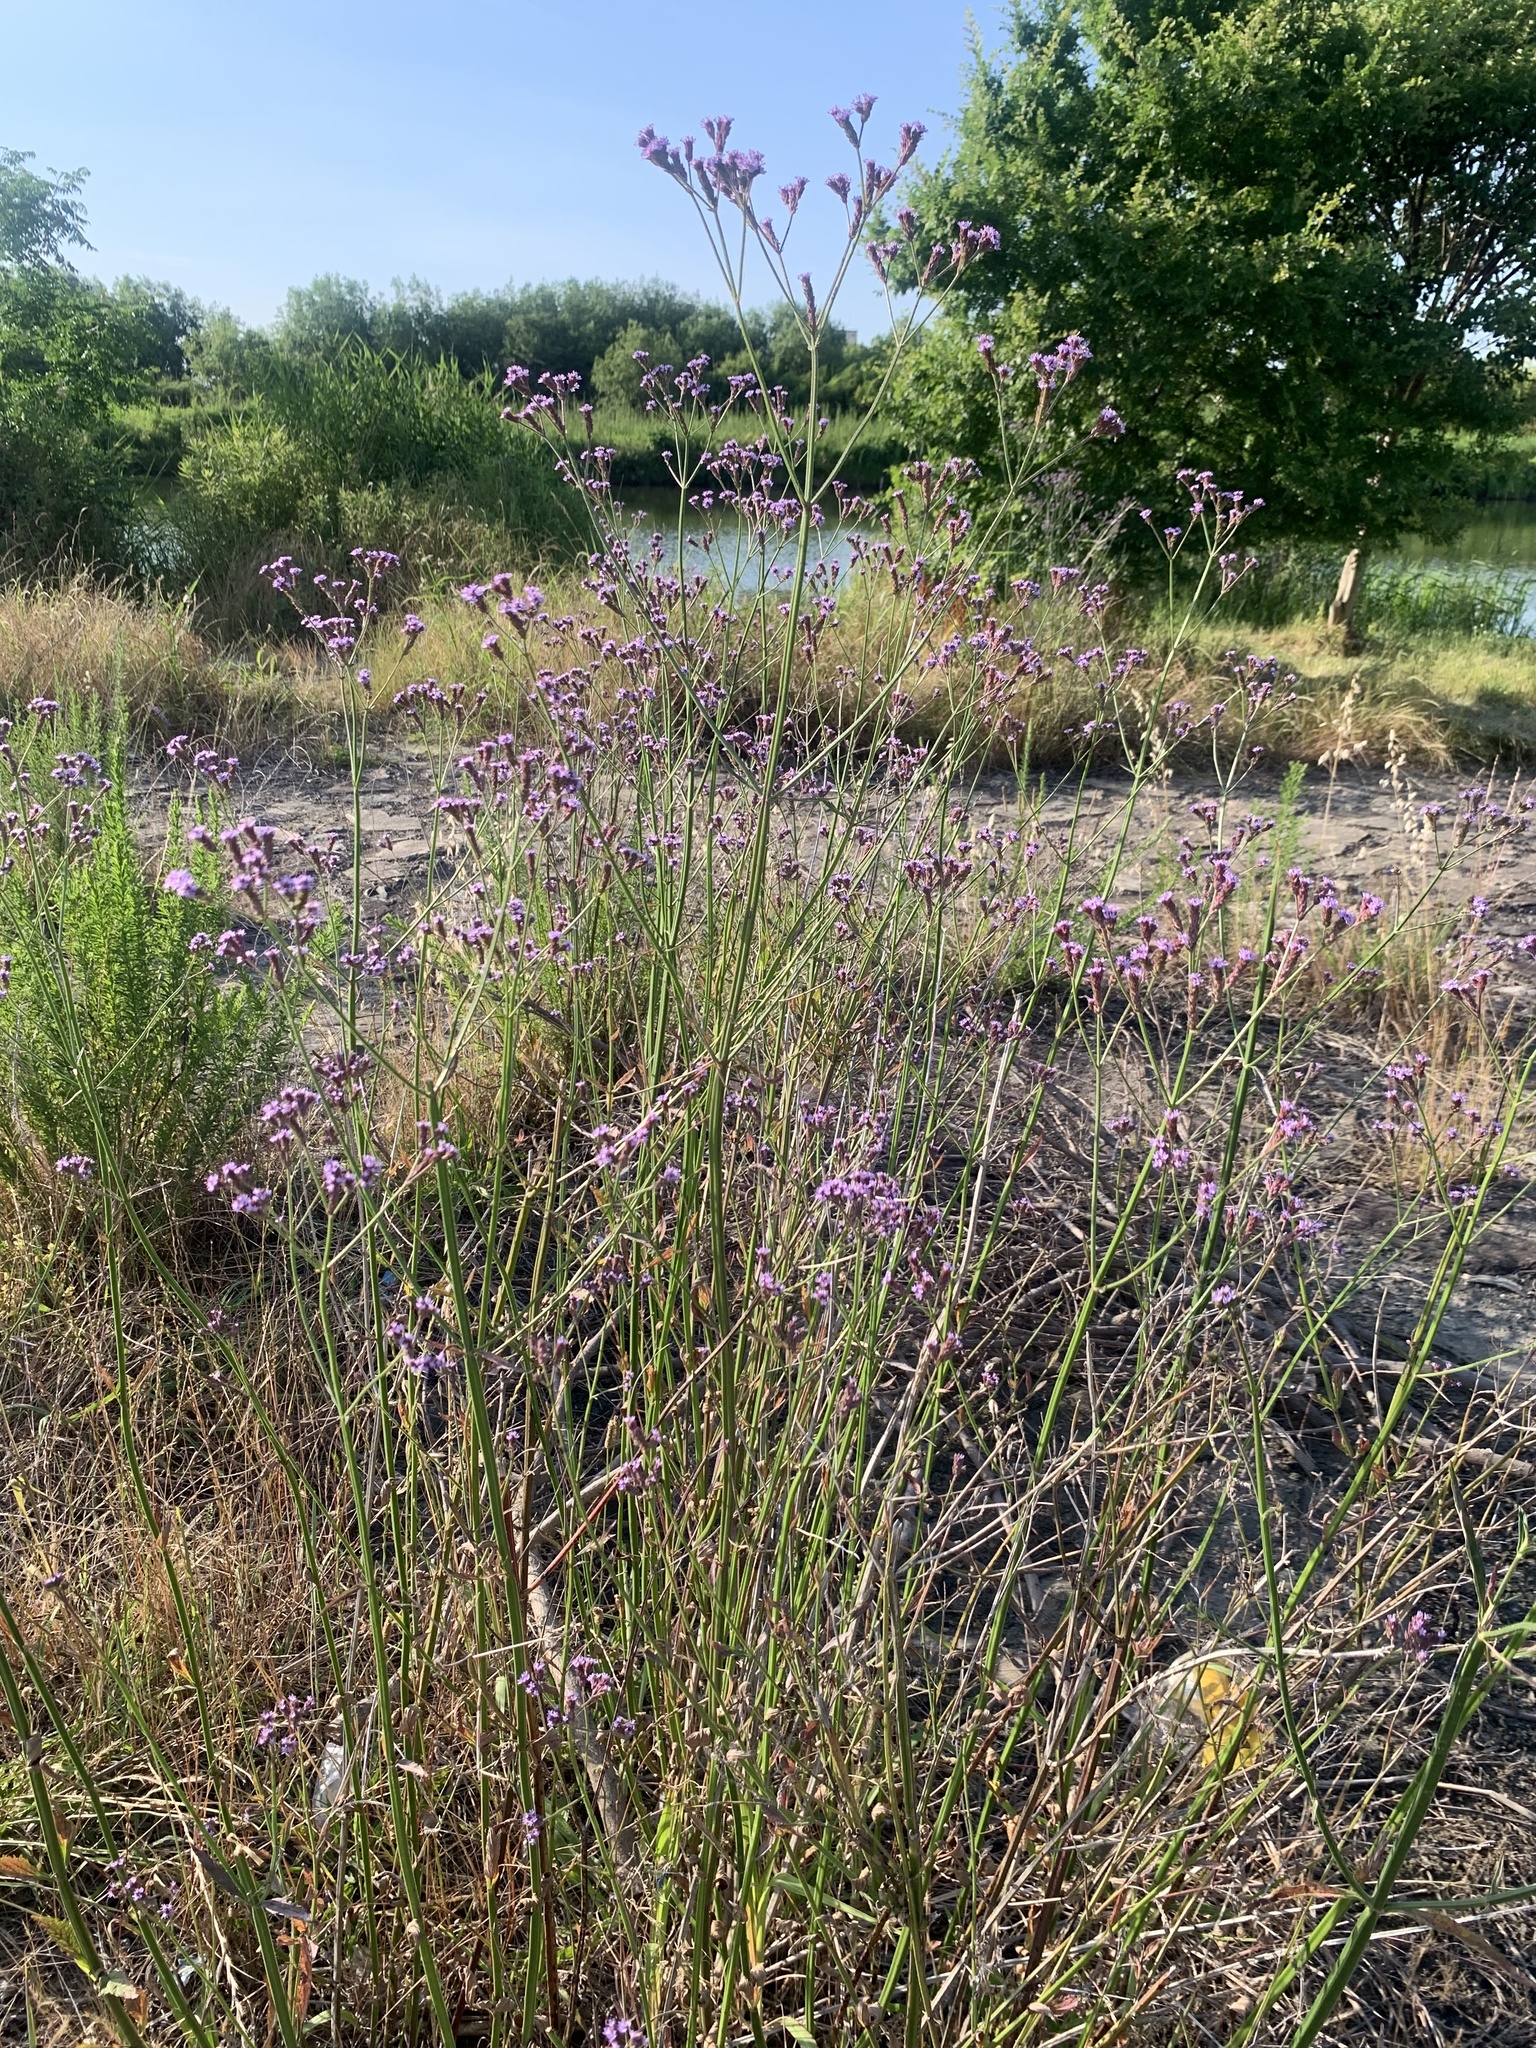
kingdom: Plantae
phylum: Tracheophyta
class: Magnoliopsida
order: Lamiales
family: Verbenaceae
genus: Verbena
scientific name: Verbena brasiliensis
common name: Brazilian vervain
